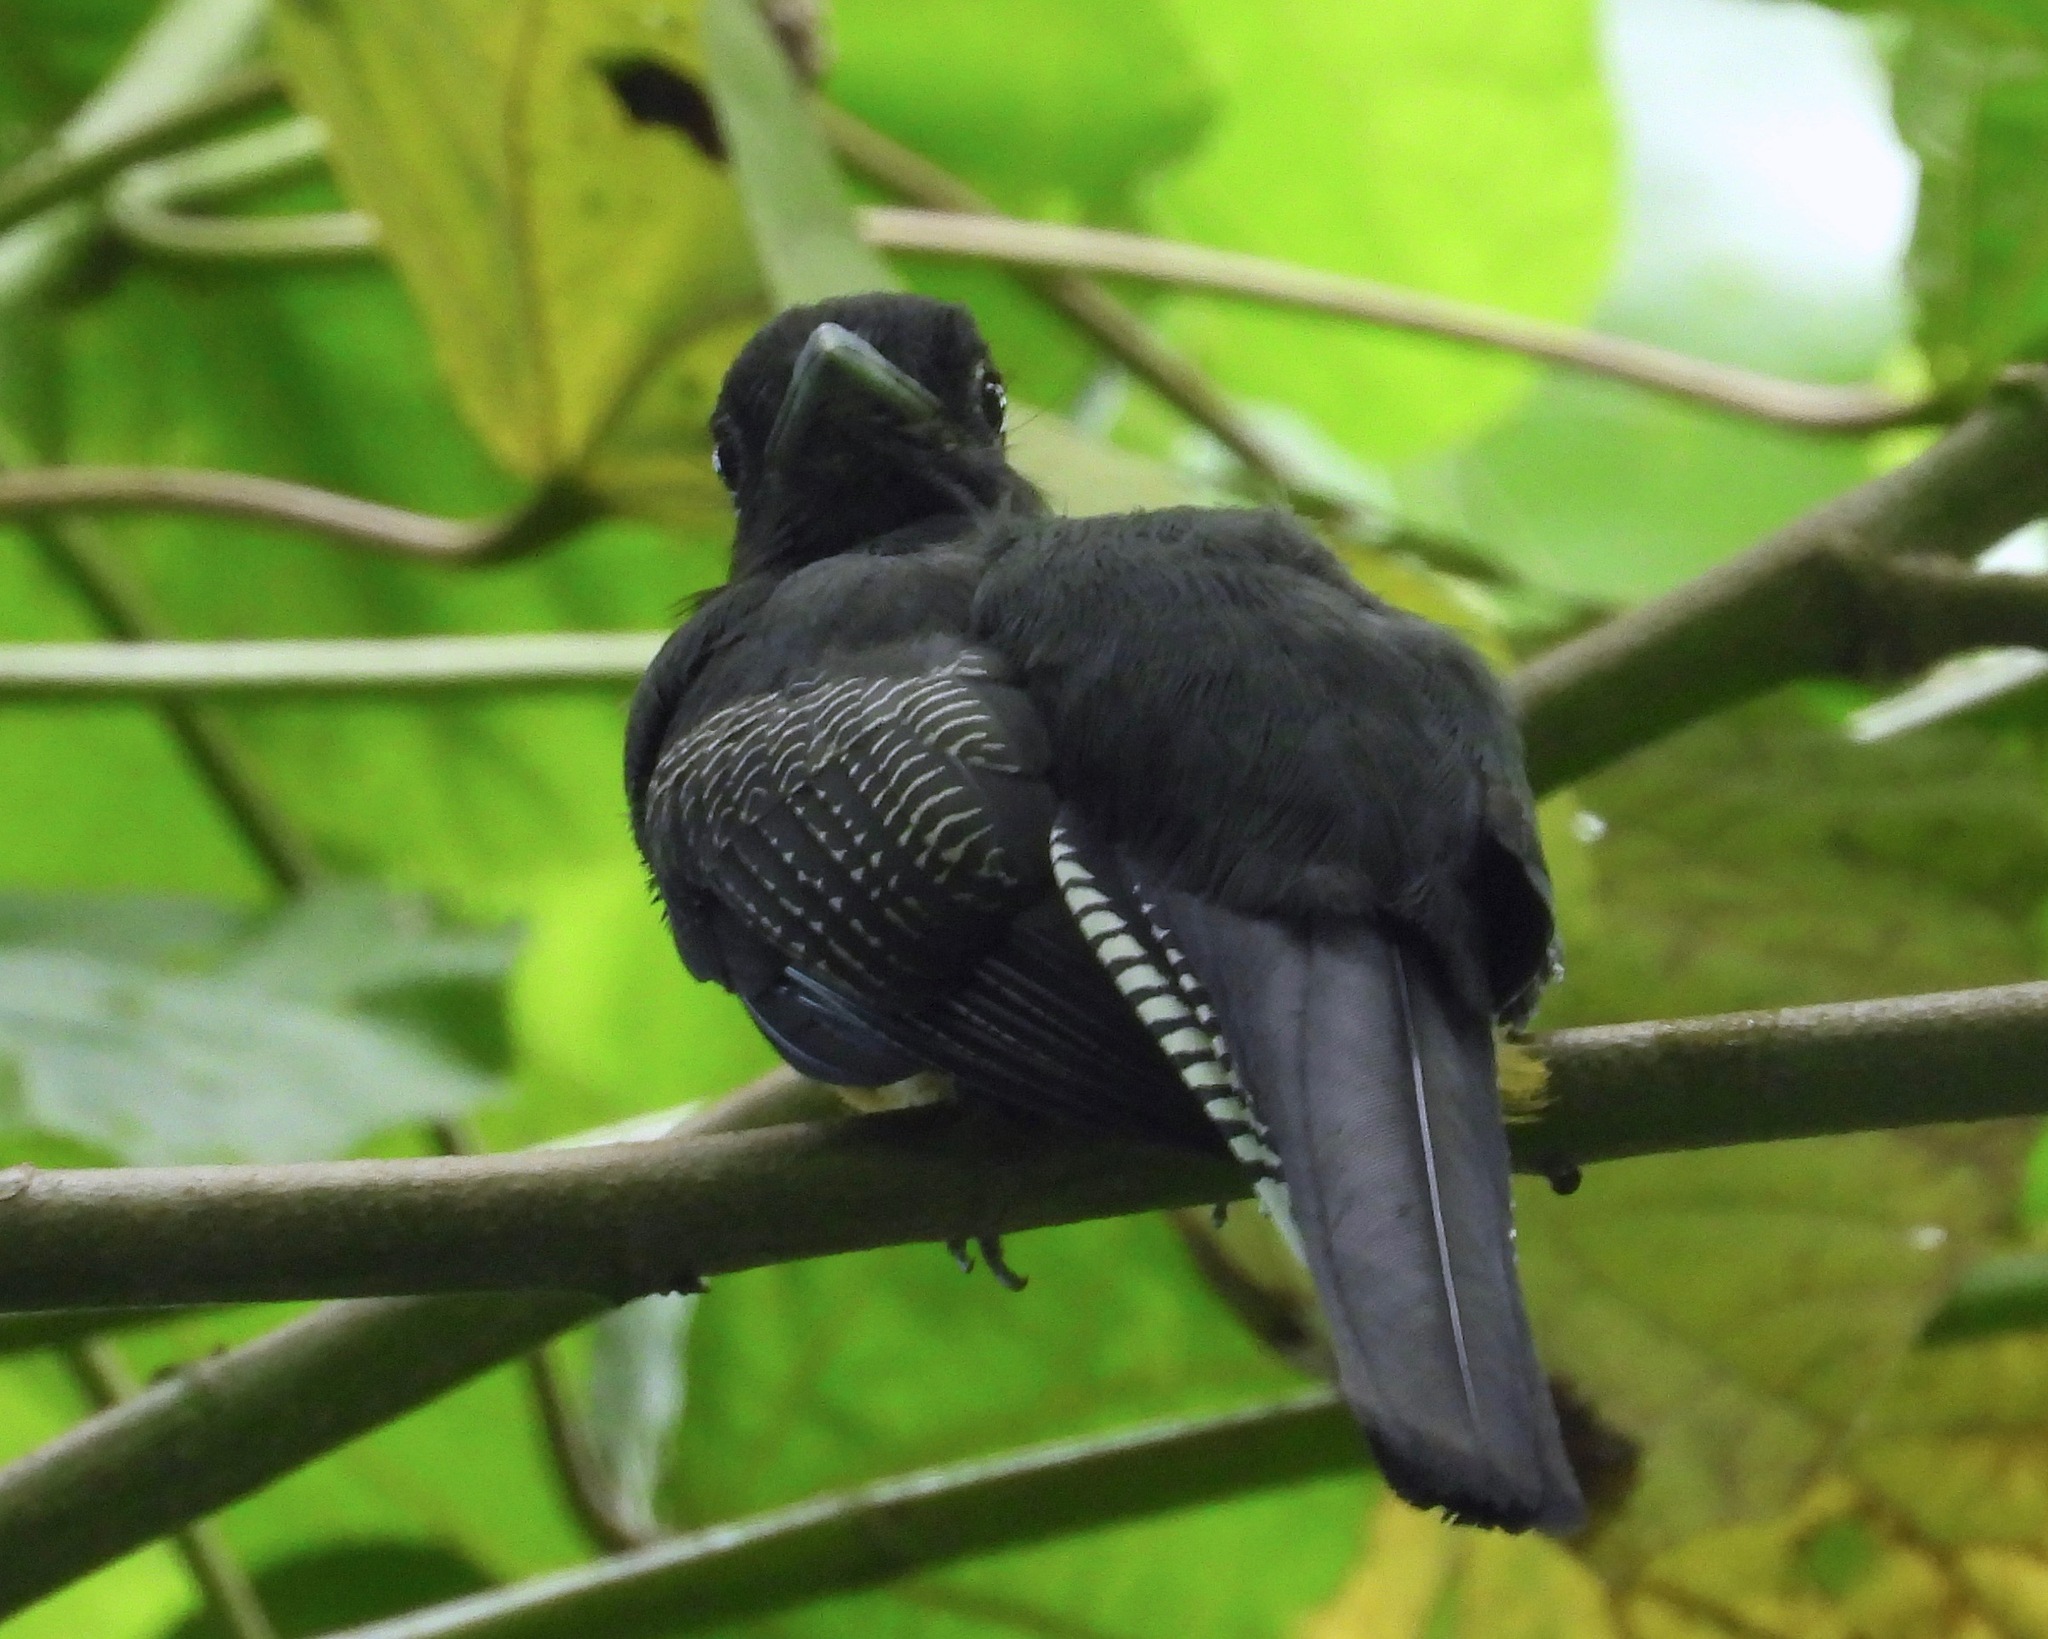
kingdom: Animalia
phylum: Chordata
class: Aves
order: Trogoniformes
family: Trogonidae
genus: Trogon
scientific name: Trogon caligatus
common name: Gartered trogon
